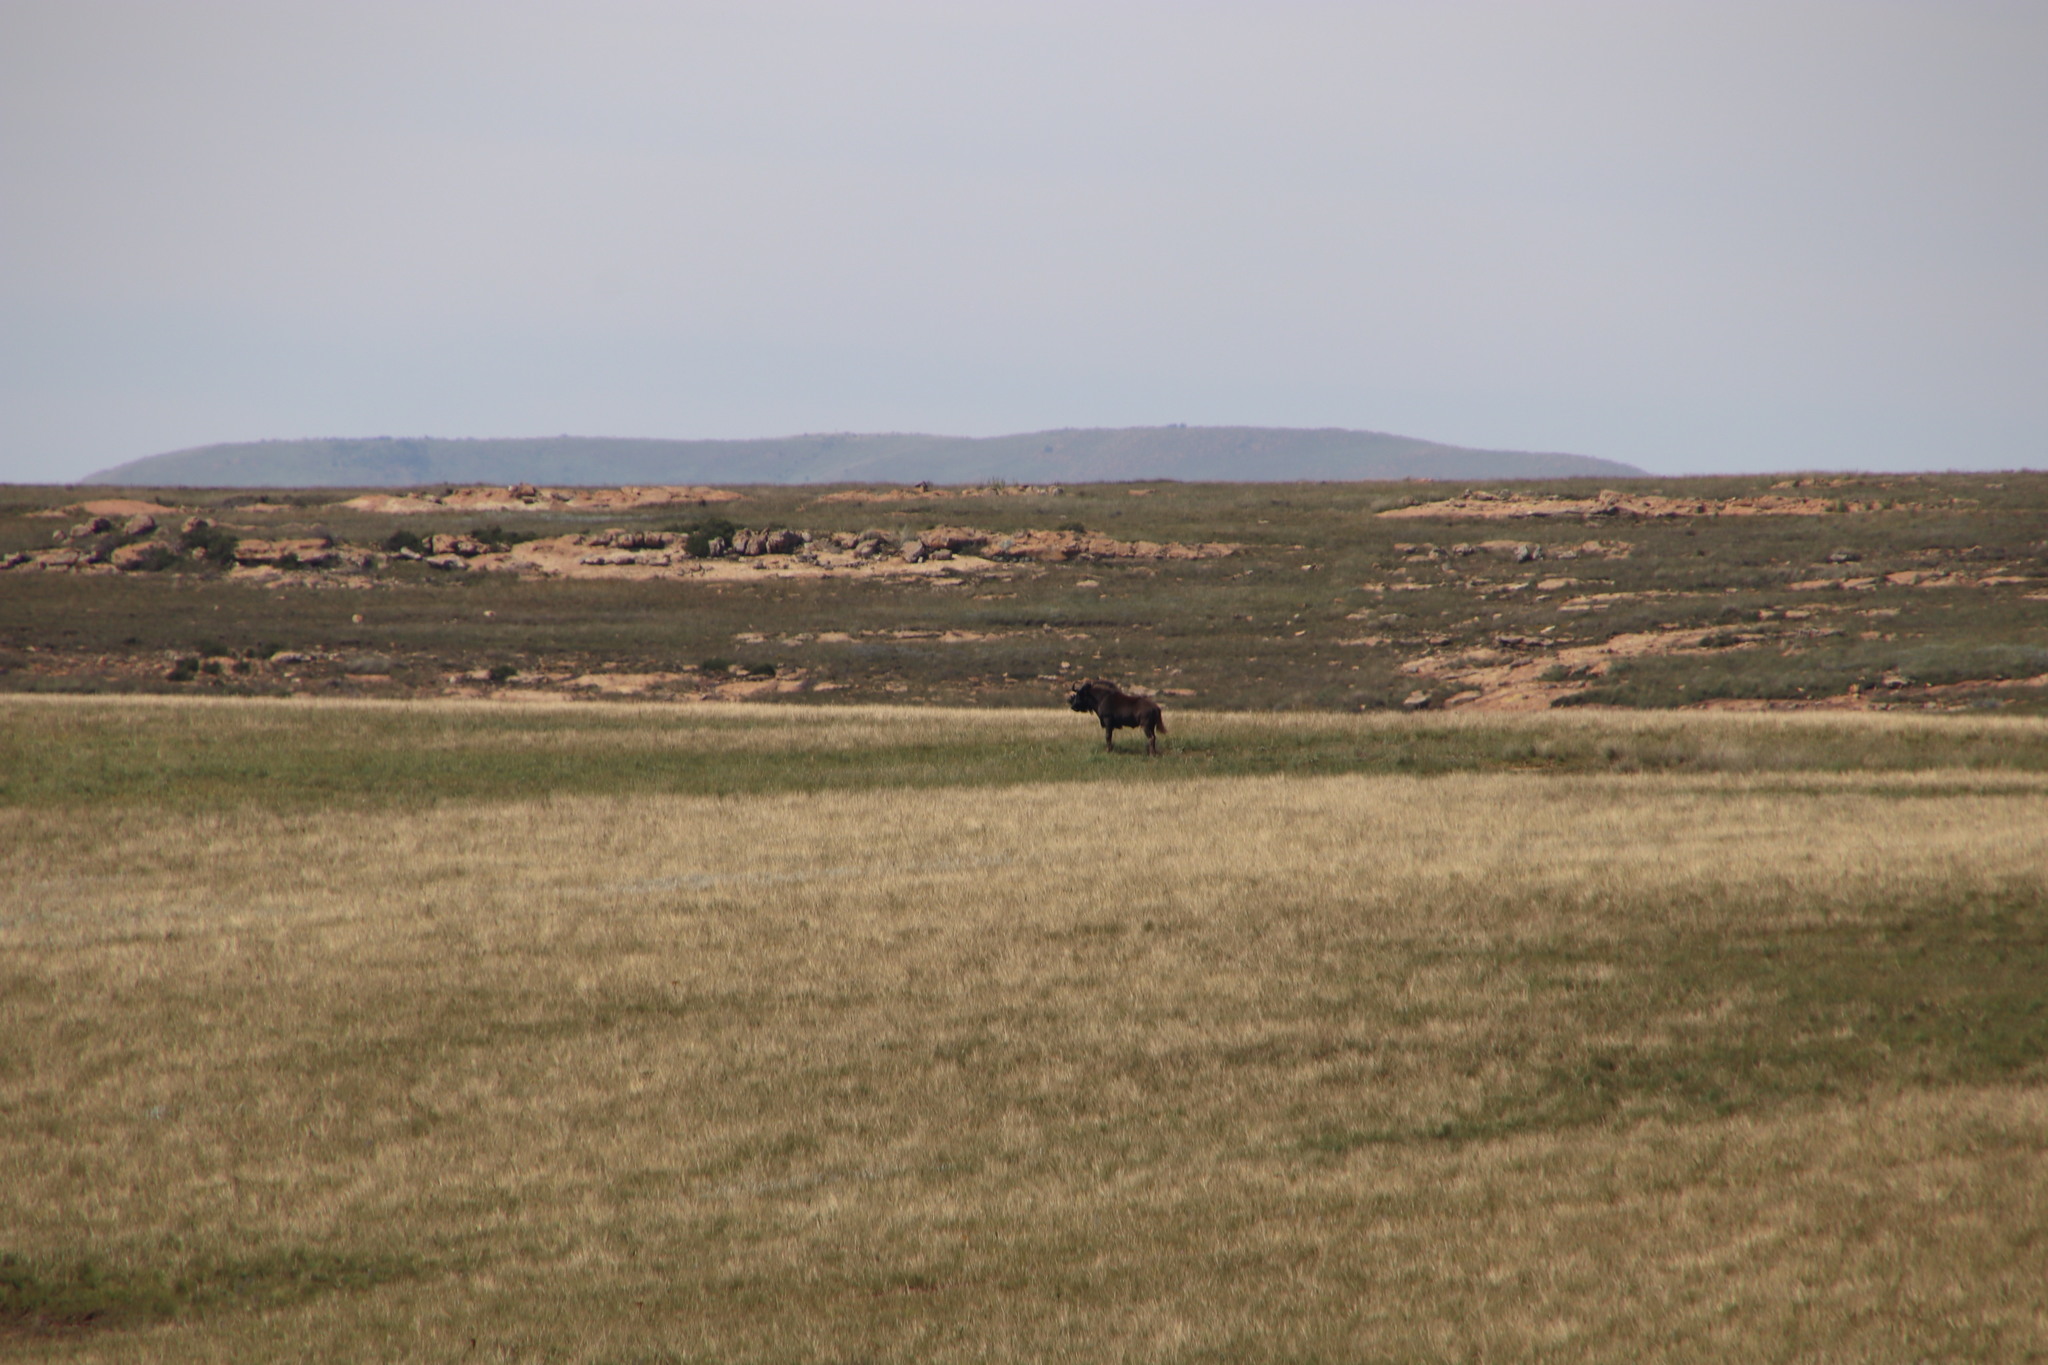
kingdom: Animalia
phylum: Chordata
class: Mammalia
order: Artiodactyla
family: Bovidae
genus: Connochaetes
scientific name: Connochaetes gnou
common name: Black wildebeest
